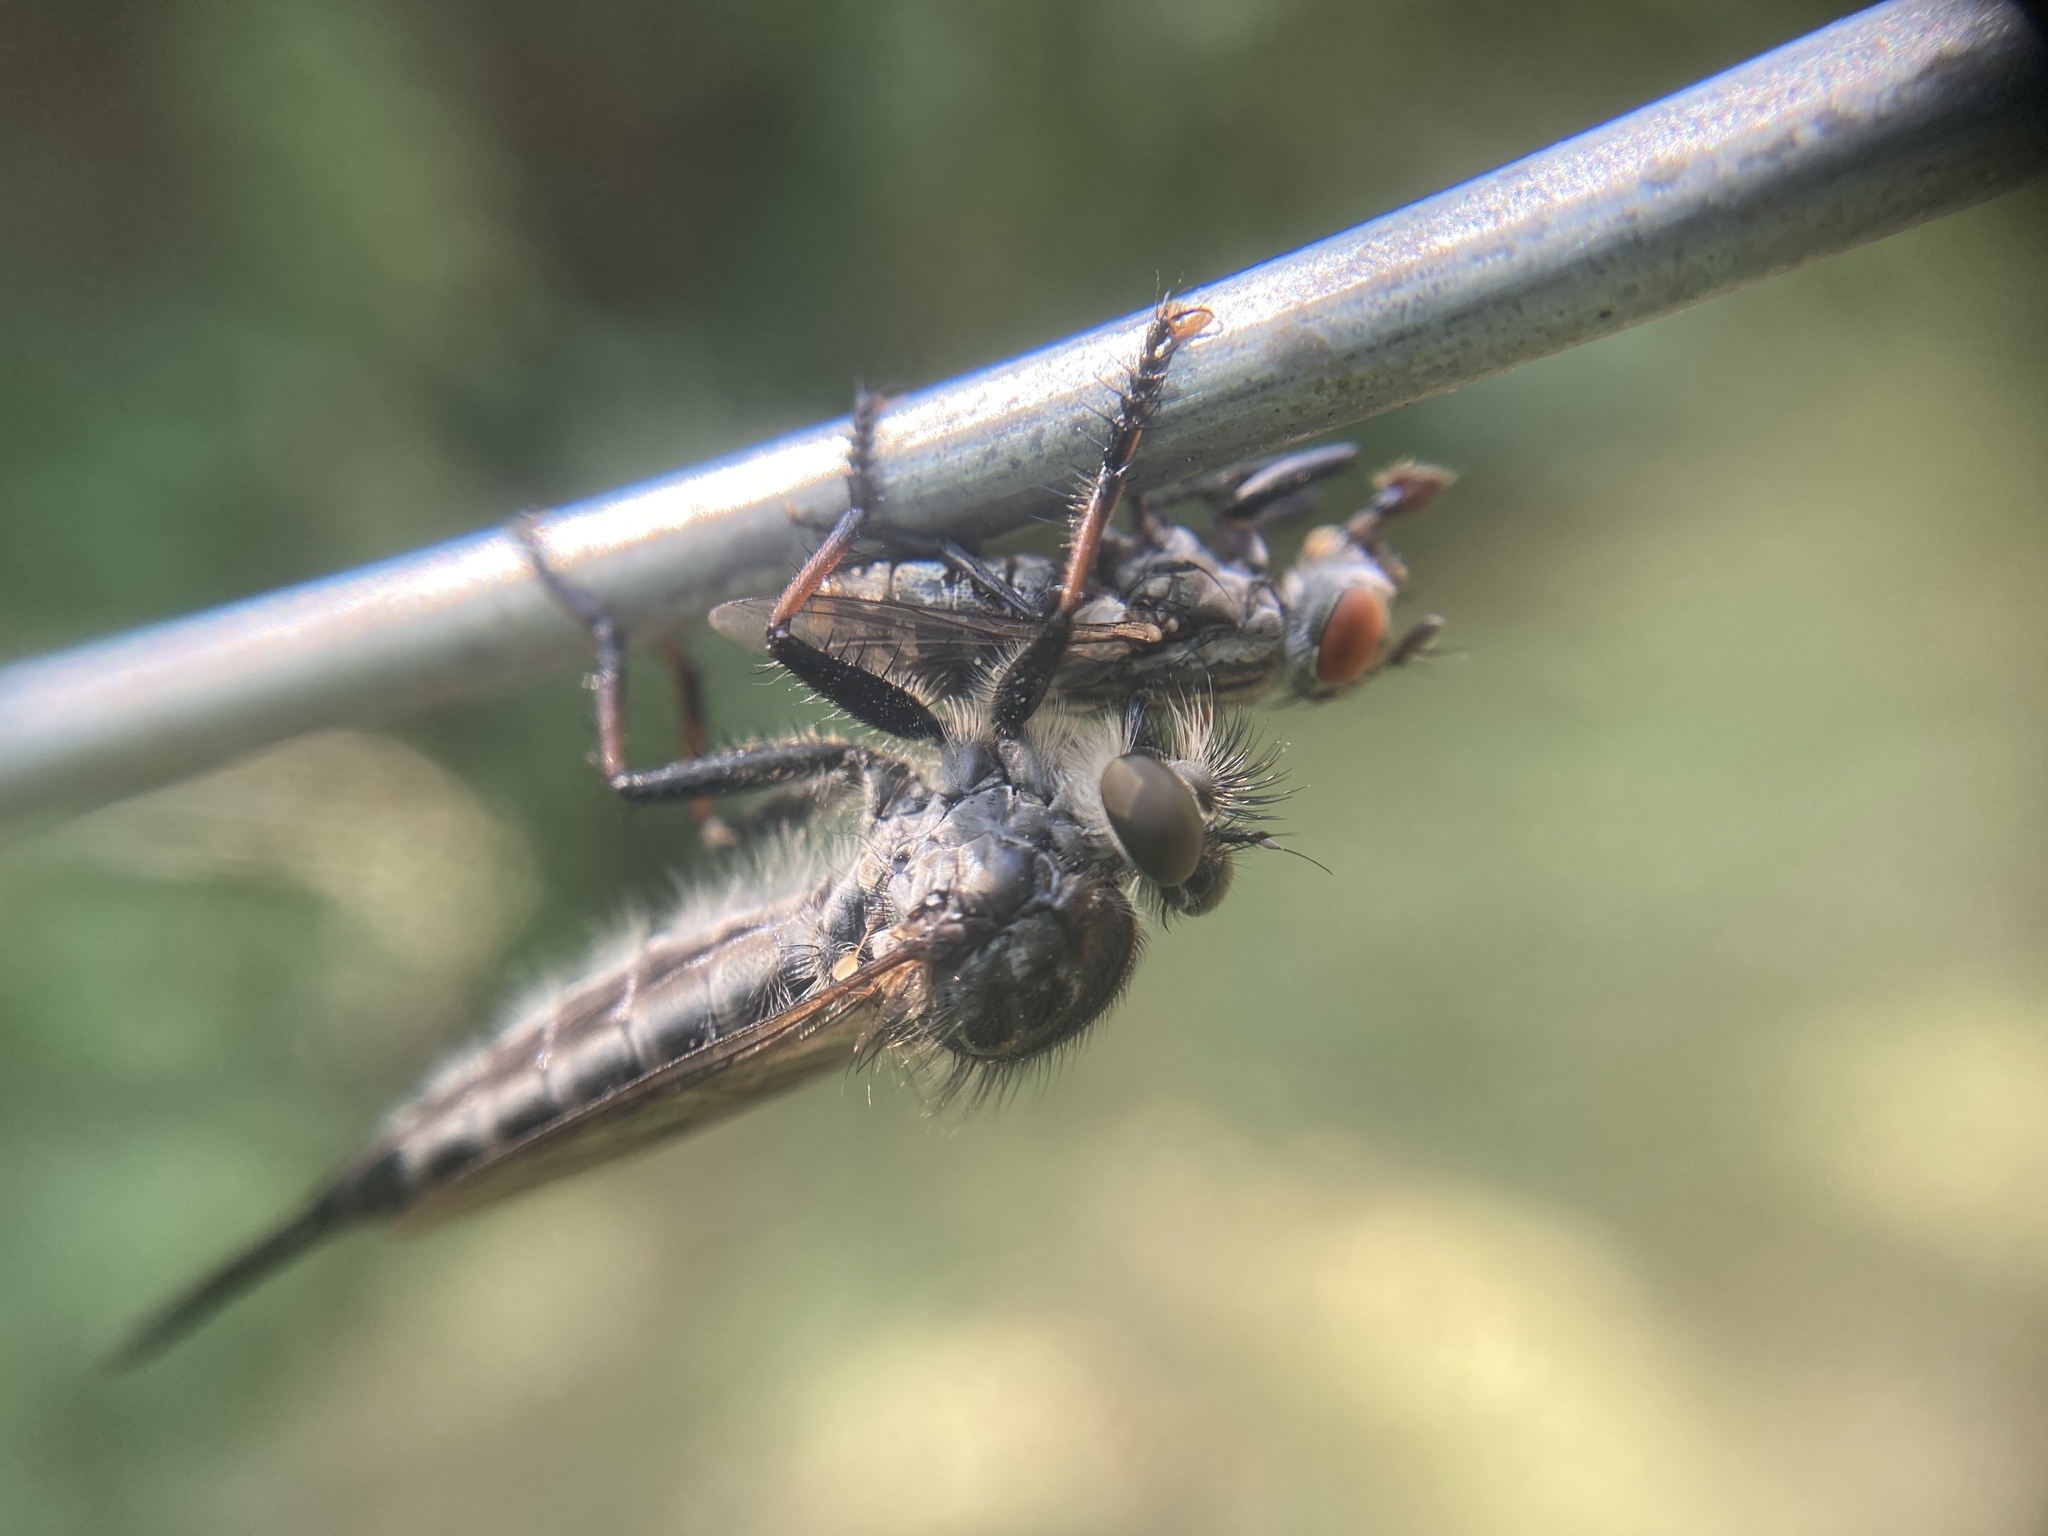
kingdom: Animalia
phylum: Arthropoda
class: Insecta
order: Diptera
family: Asilidae
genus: Efferia
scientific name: Efferia aestuans
